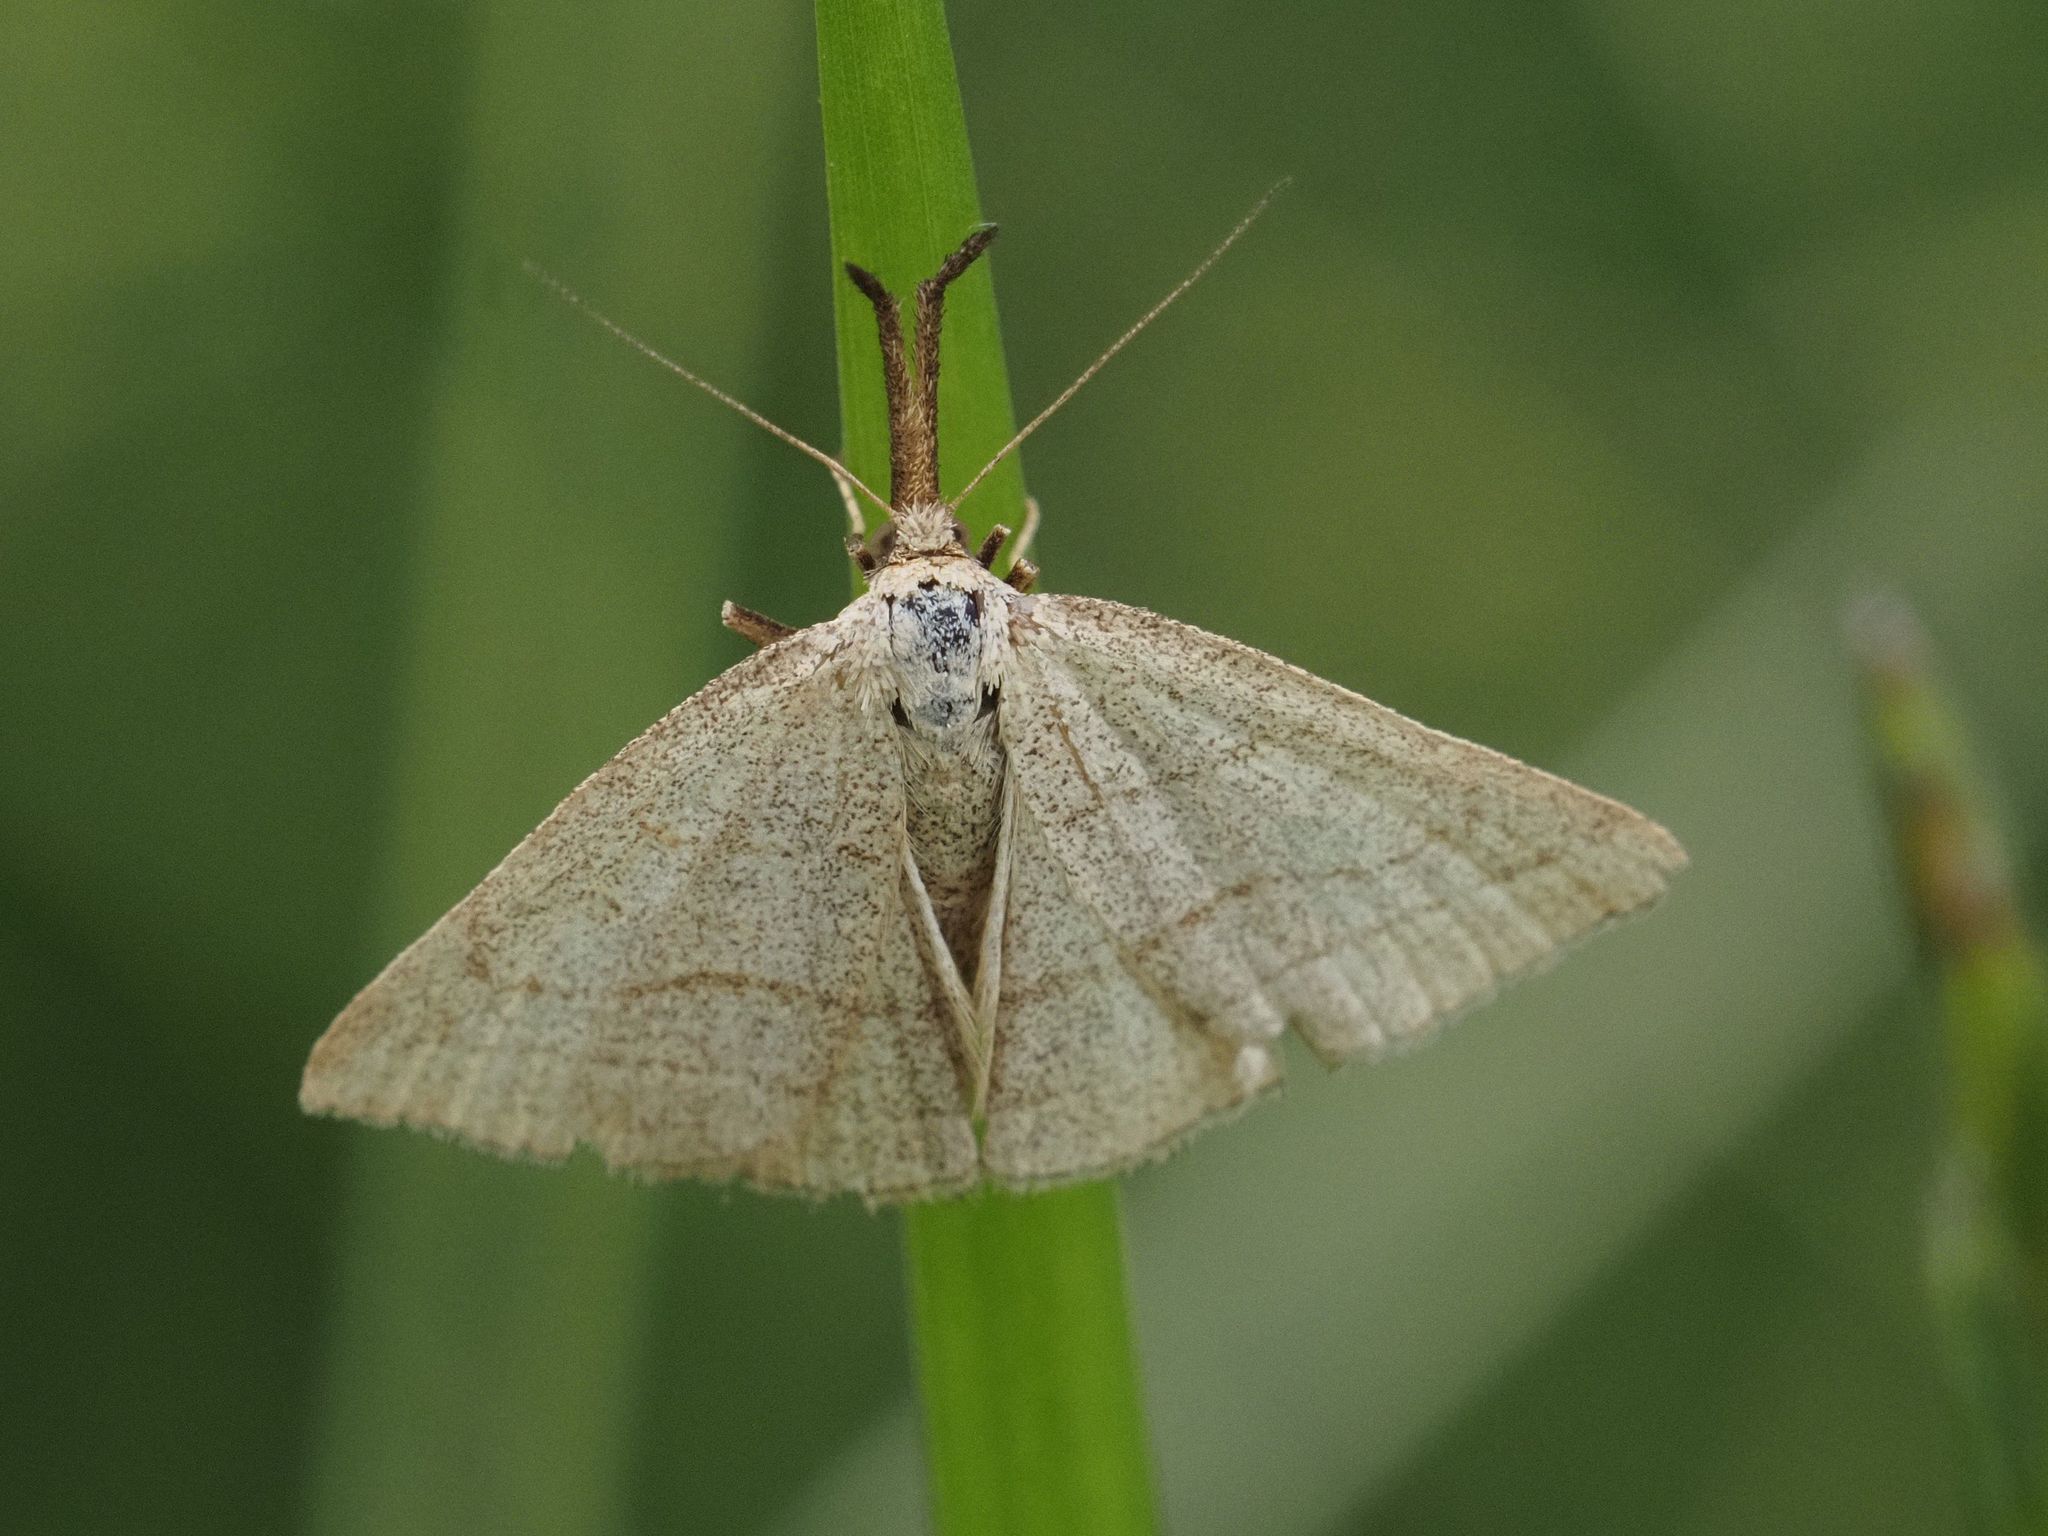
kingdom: Animalia
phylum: Arthropoda
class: Insecta
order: Lepidoptera
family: Erebidae
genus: Polypogon
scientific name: Polypogon tentacularia
